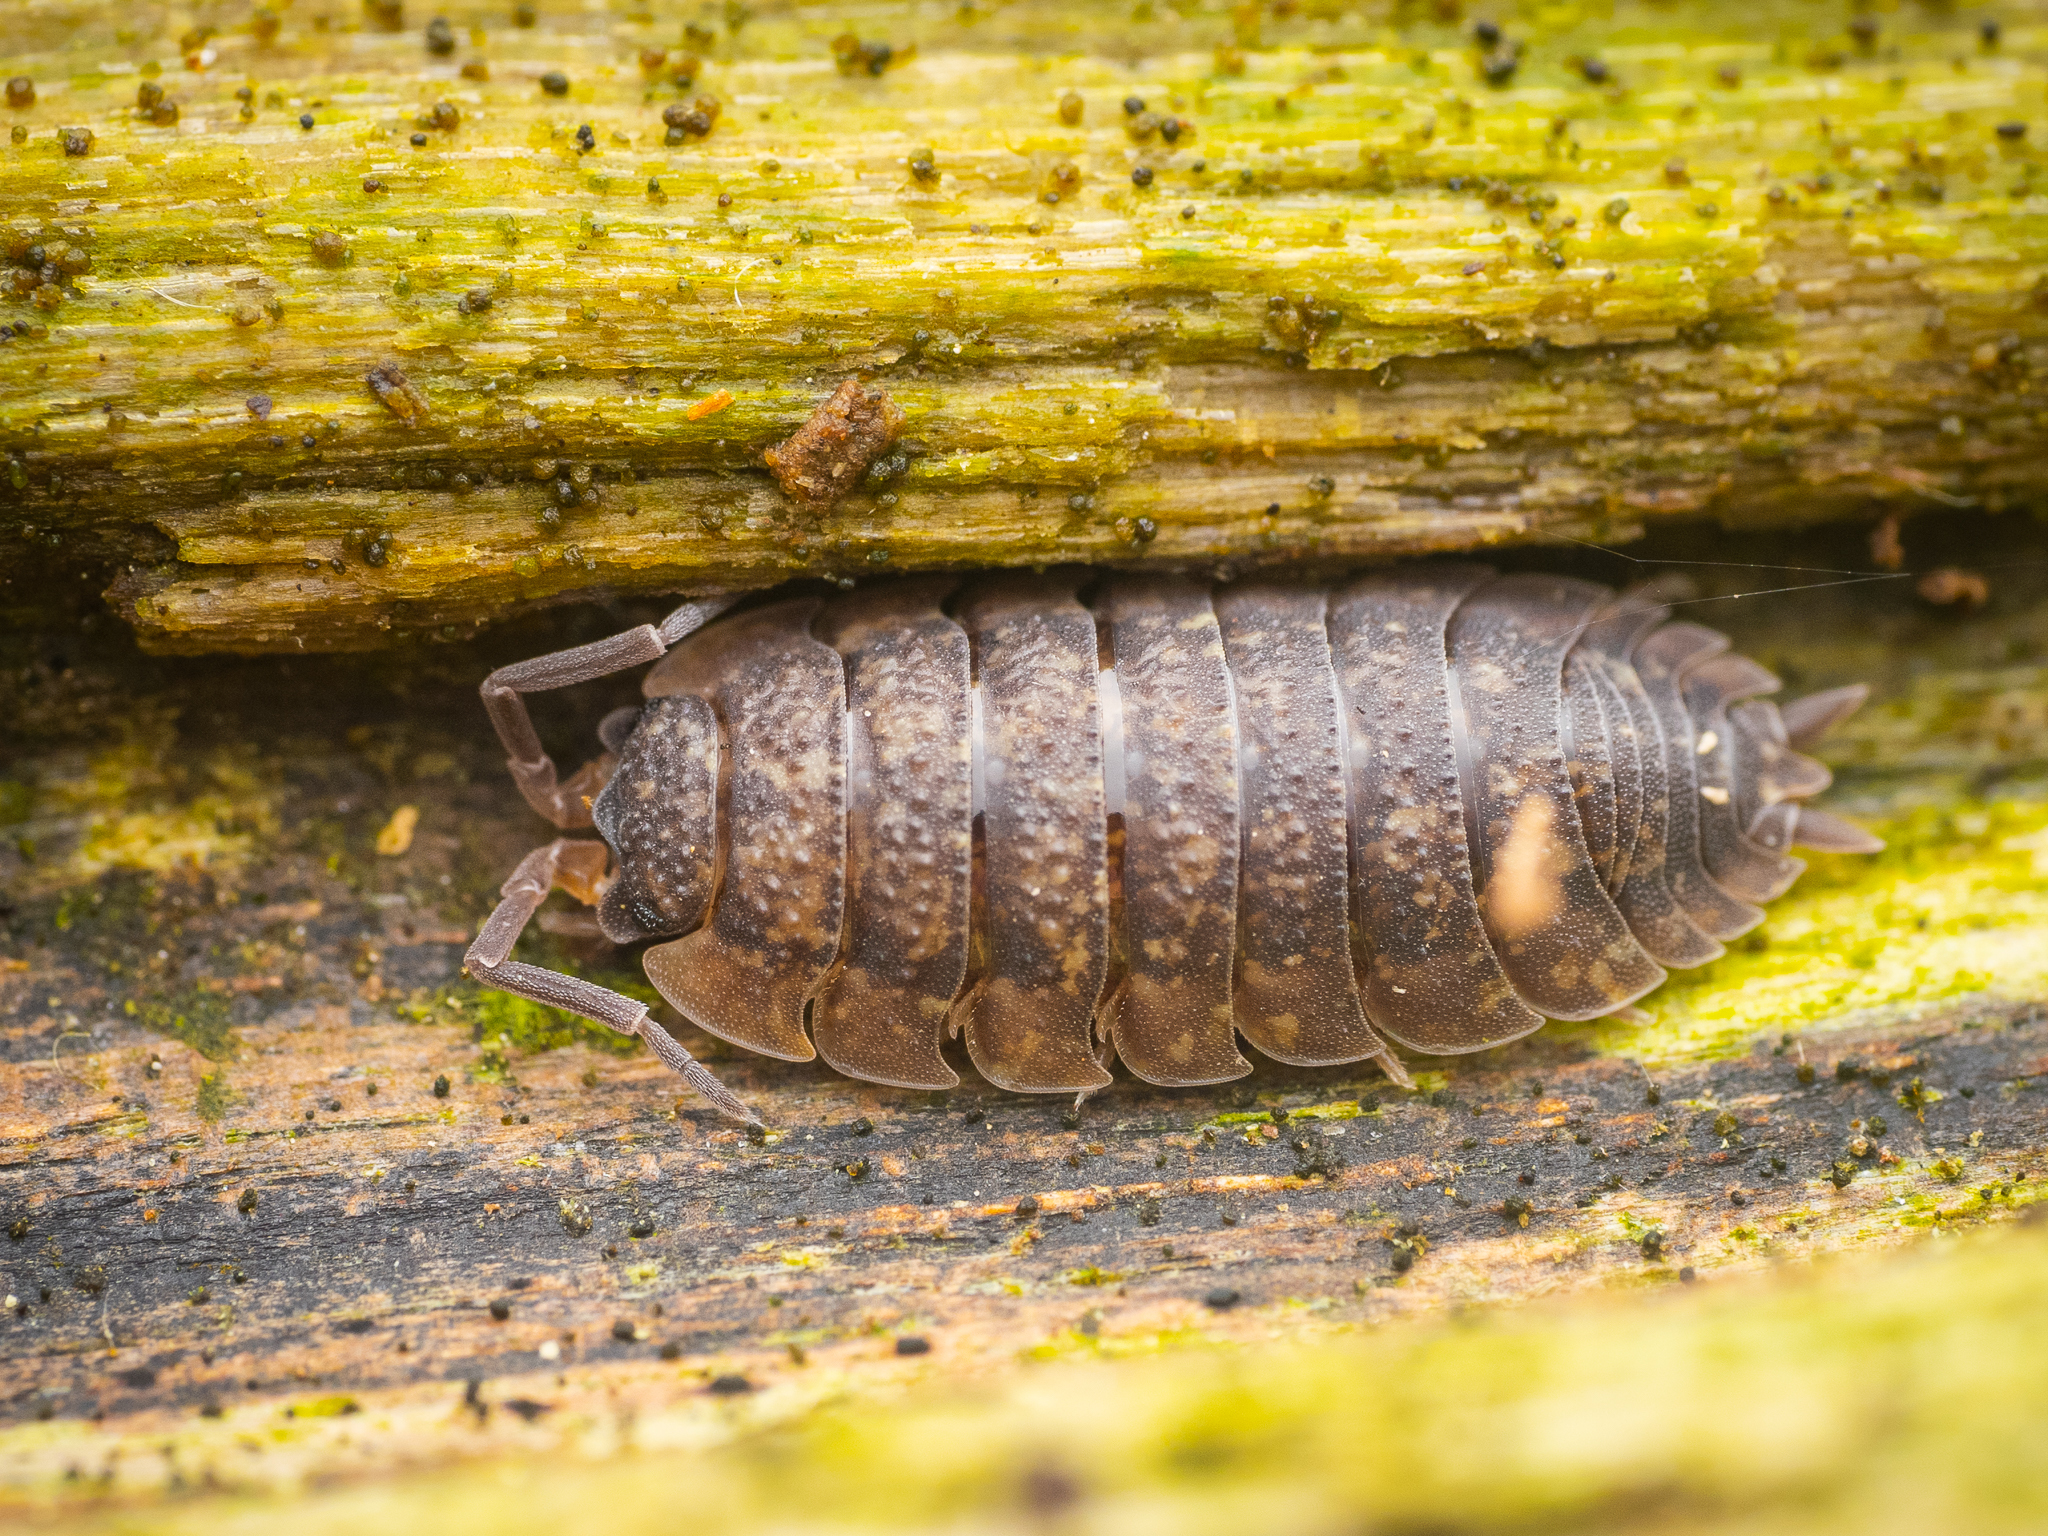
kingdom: Animalia
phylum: Arthropoda
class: Malacostraca
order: Isopoda
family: Porcellionidae
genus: Porcellio
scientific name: Porcellio scaber
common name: Common rough woodlouse
